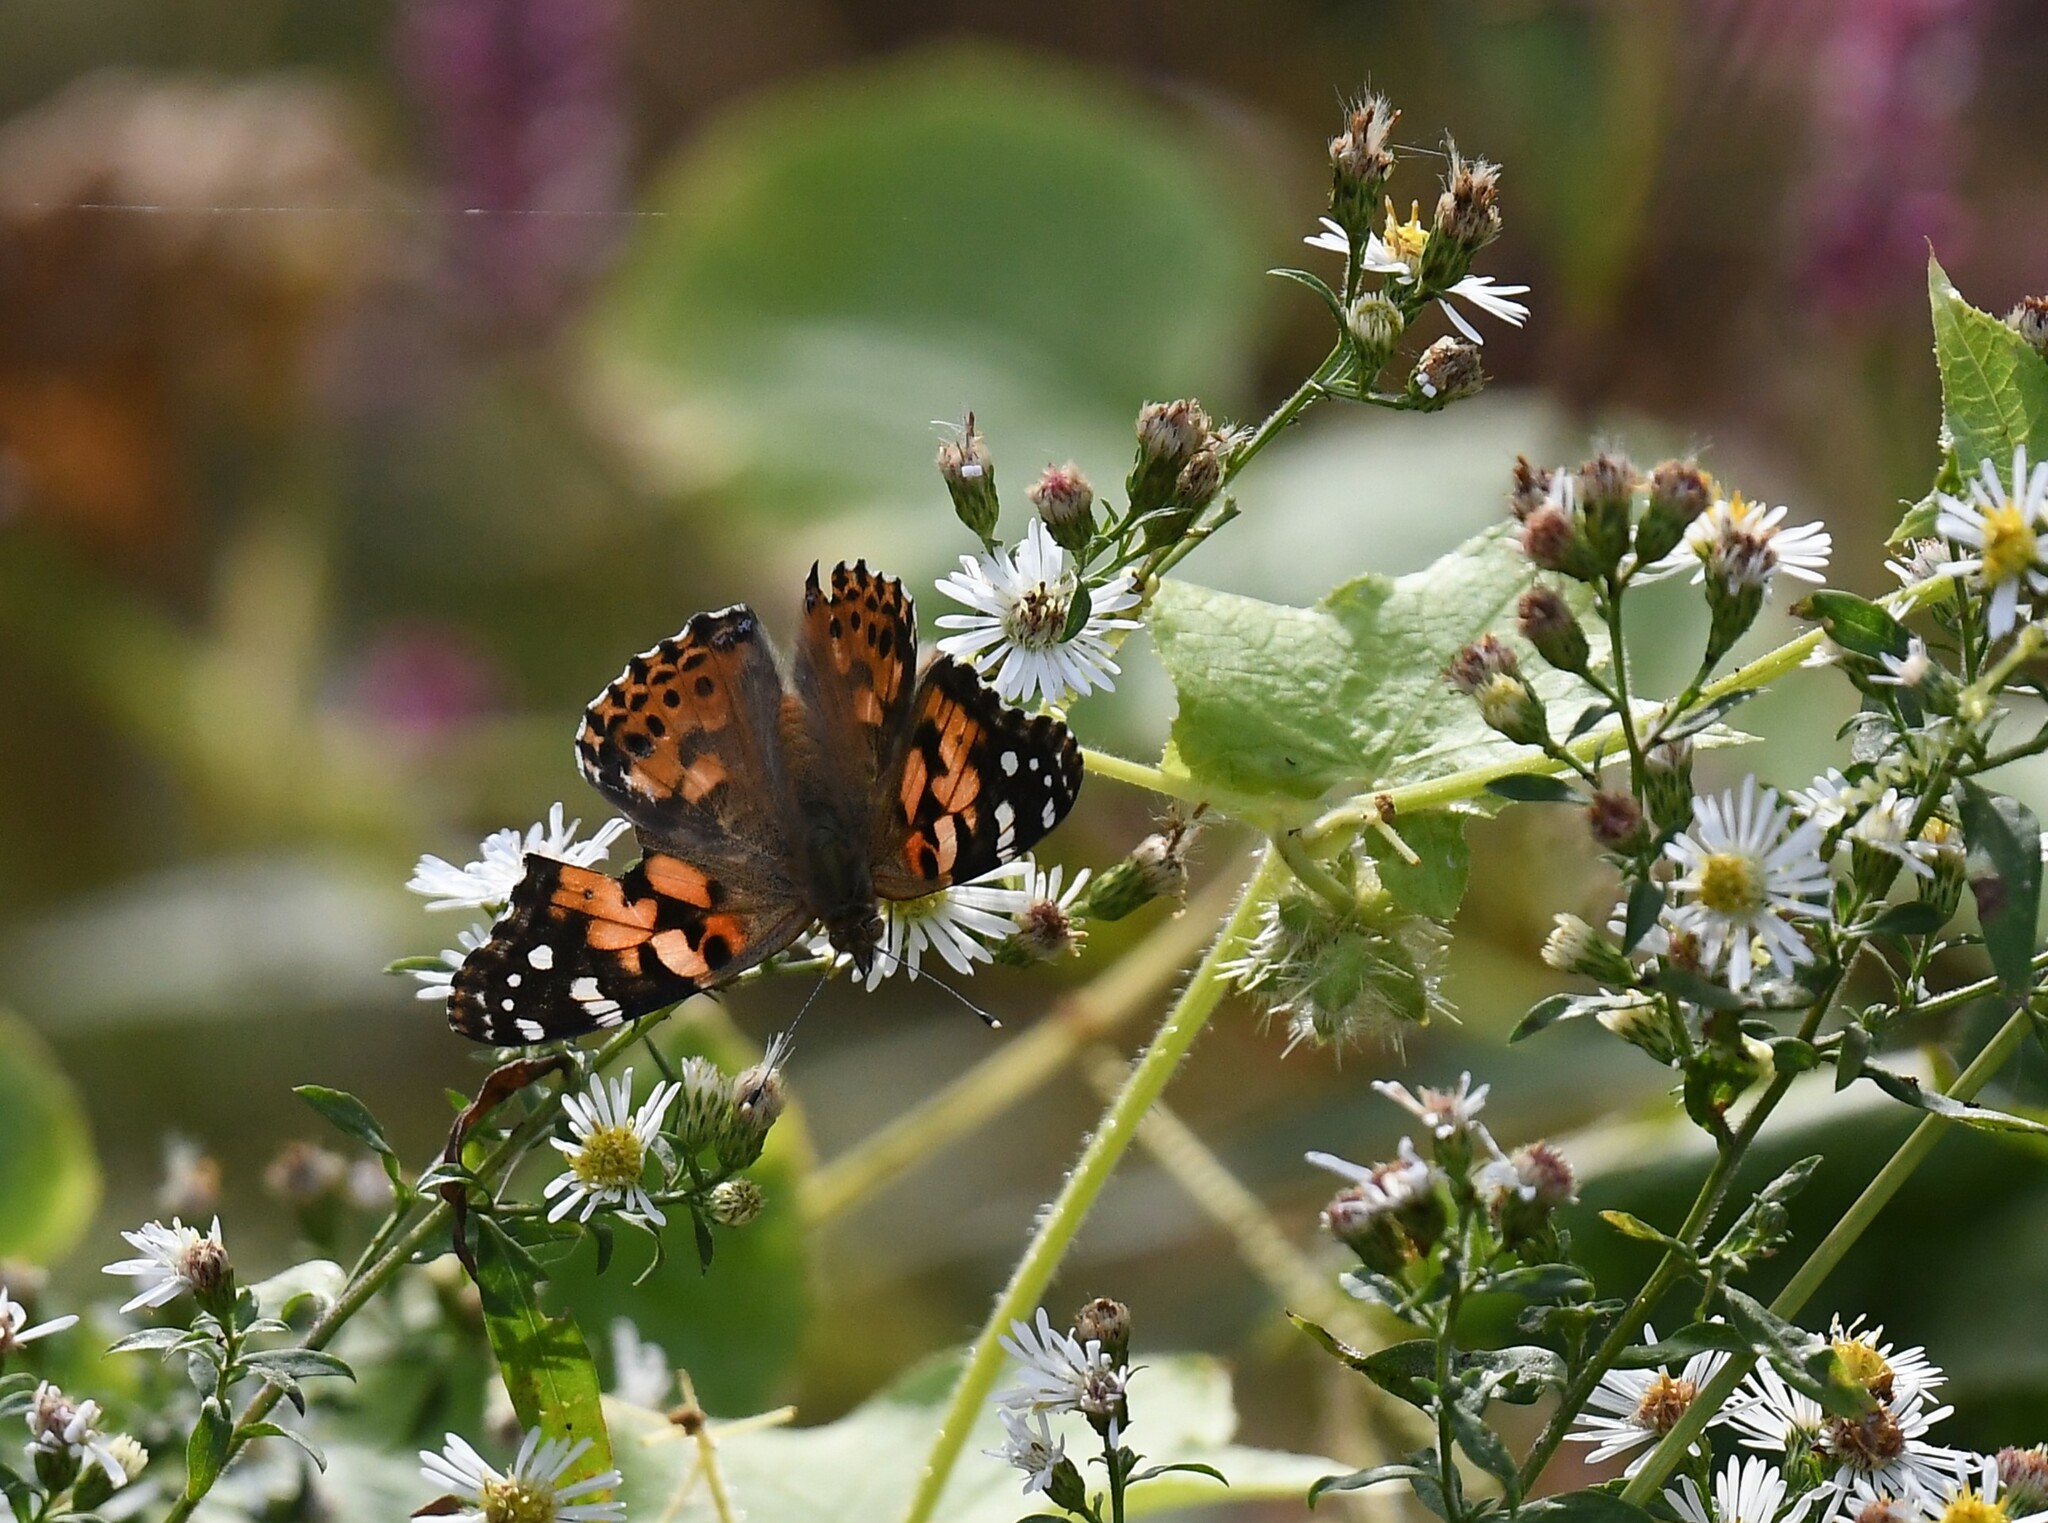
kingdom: Animalia
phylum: Arthropoda
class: Insecta
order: Lepidoptera
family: Nymphalidae
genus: Vanessa
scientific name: Vanessa cardui
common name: Painted lady
